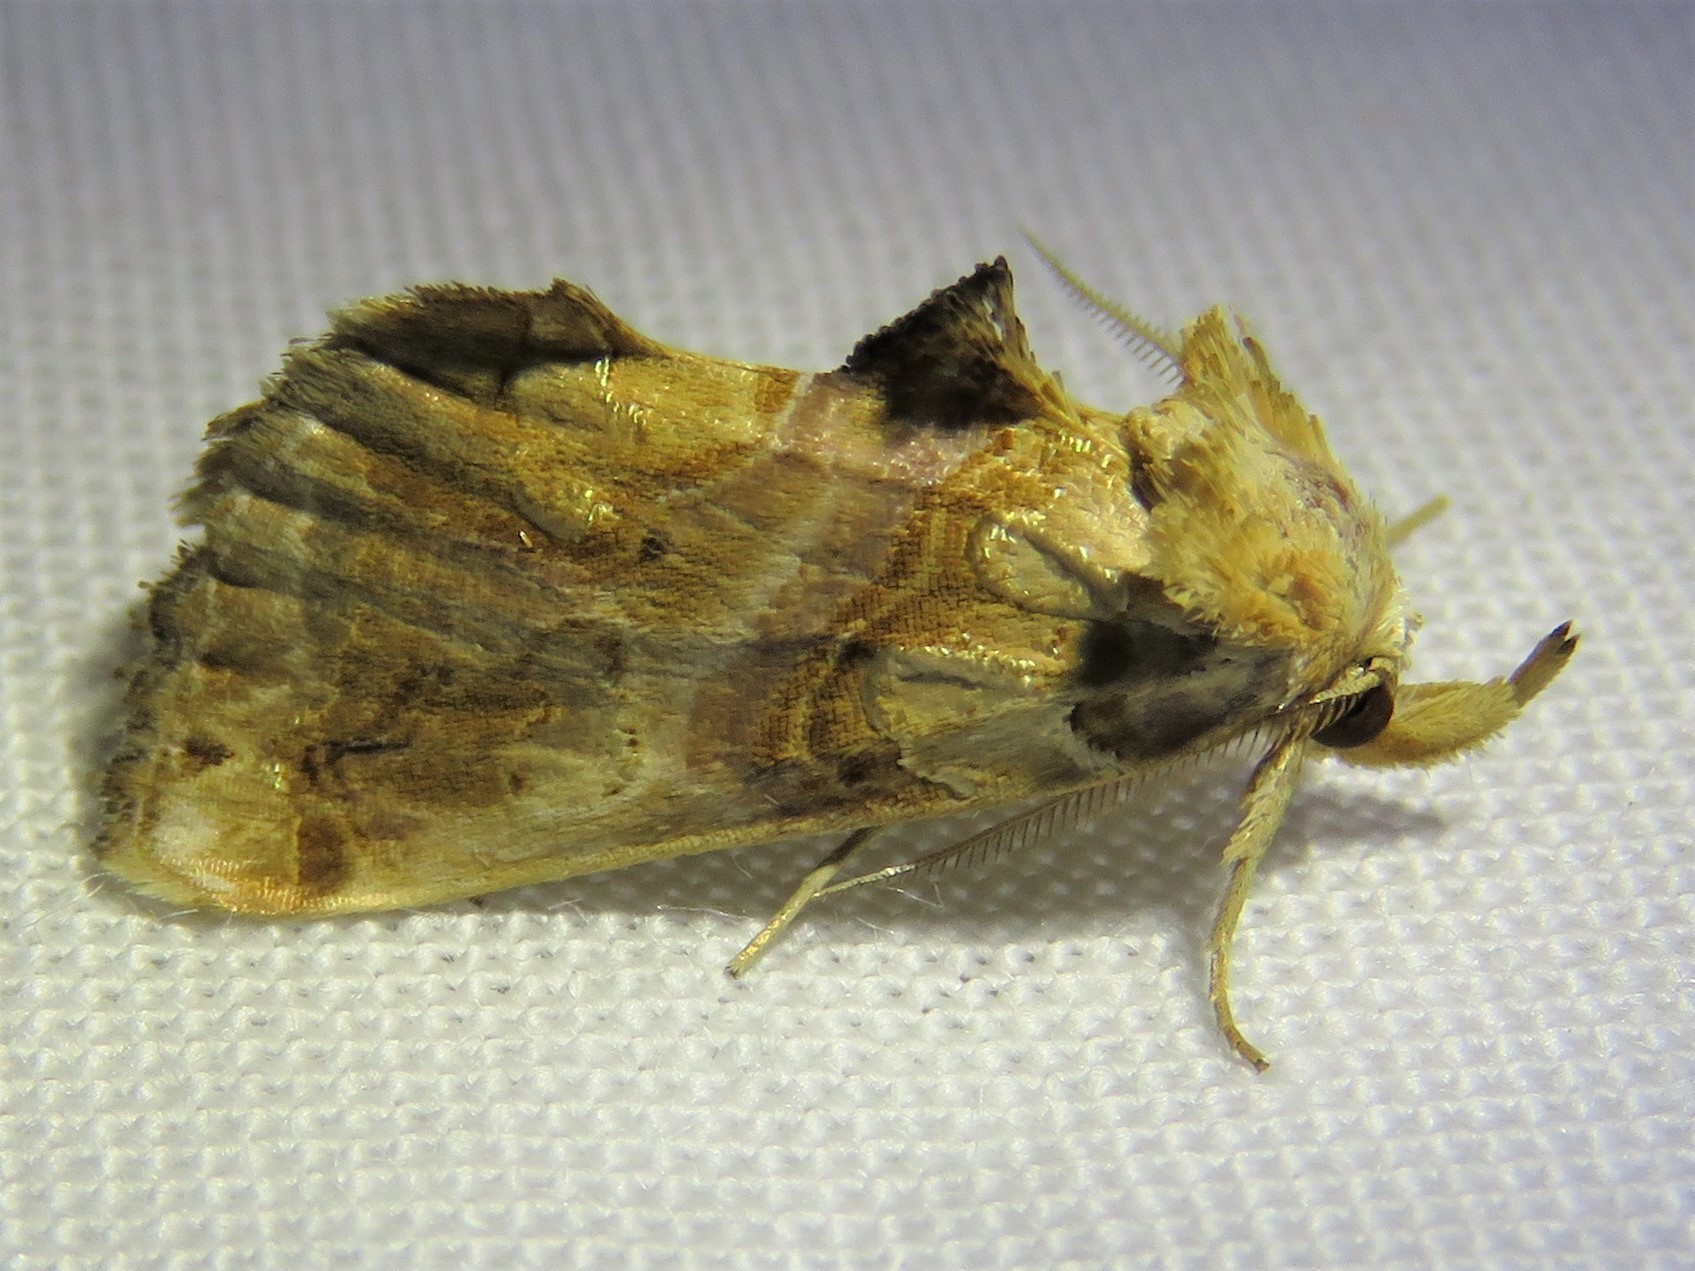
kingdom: Animalia
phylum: Arthropoda
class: Insecta
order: Lepidoptera
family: Erebidae
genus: Plusiodonta
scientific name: Plusiodonta compressipalpis
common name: Moonseed moth
